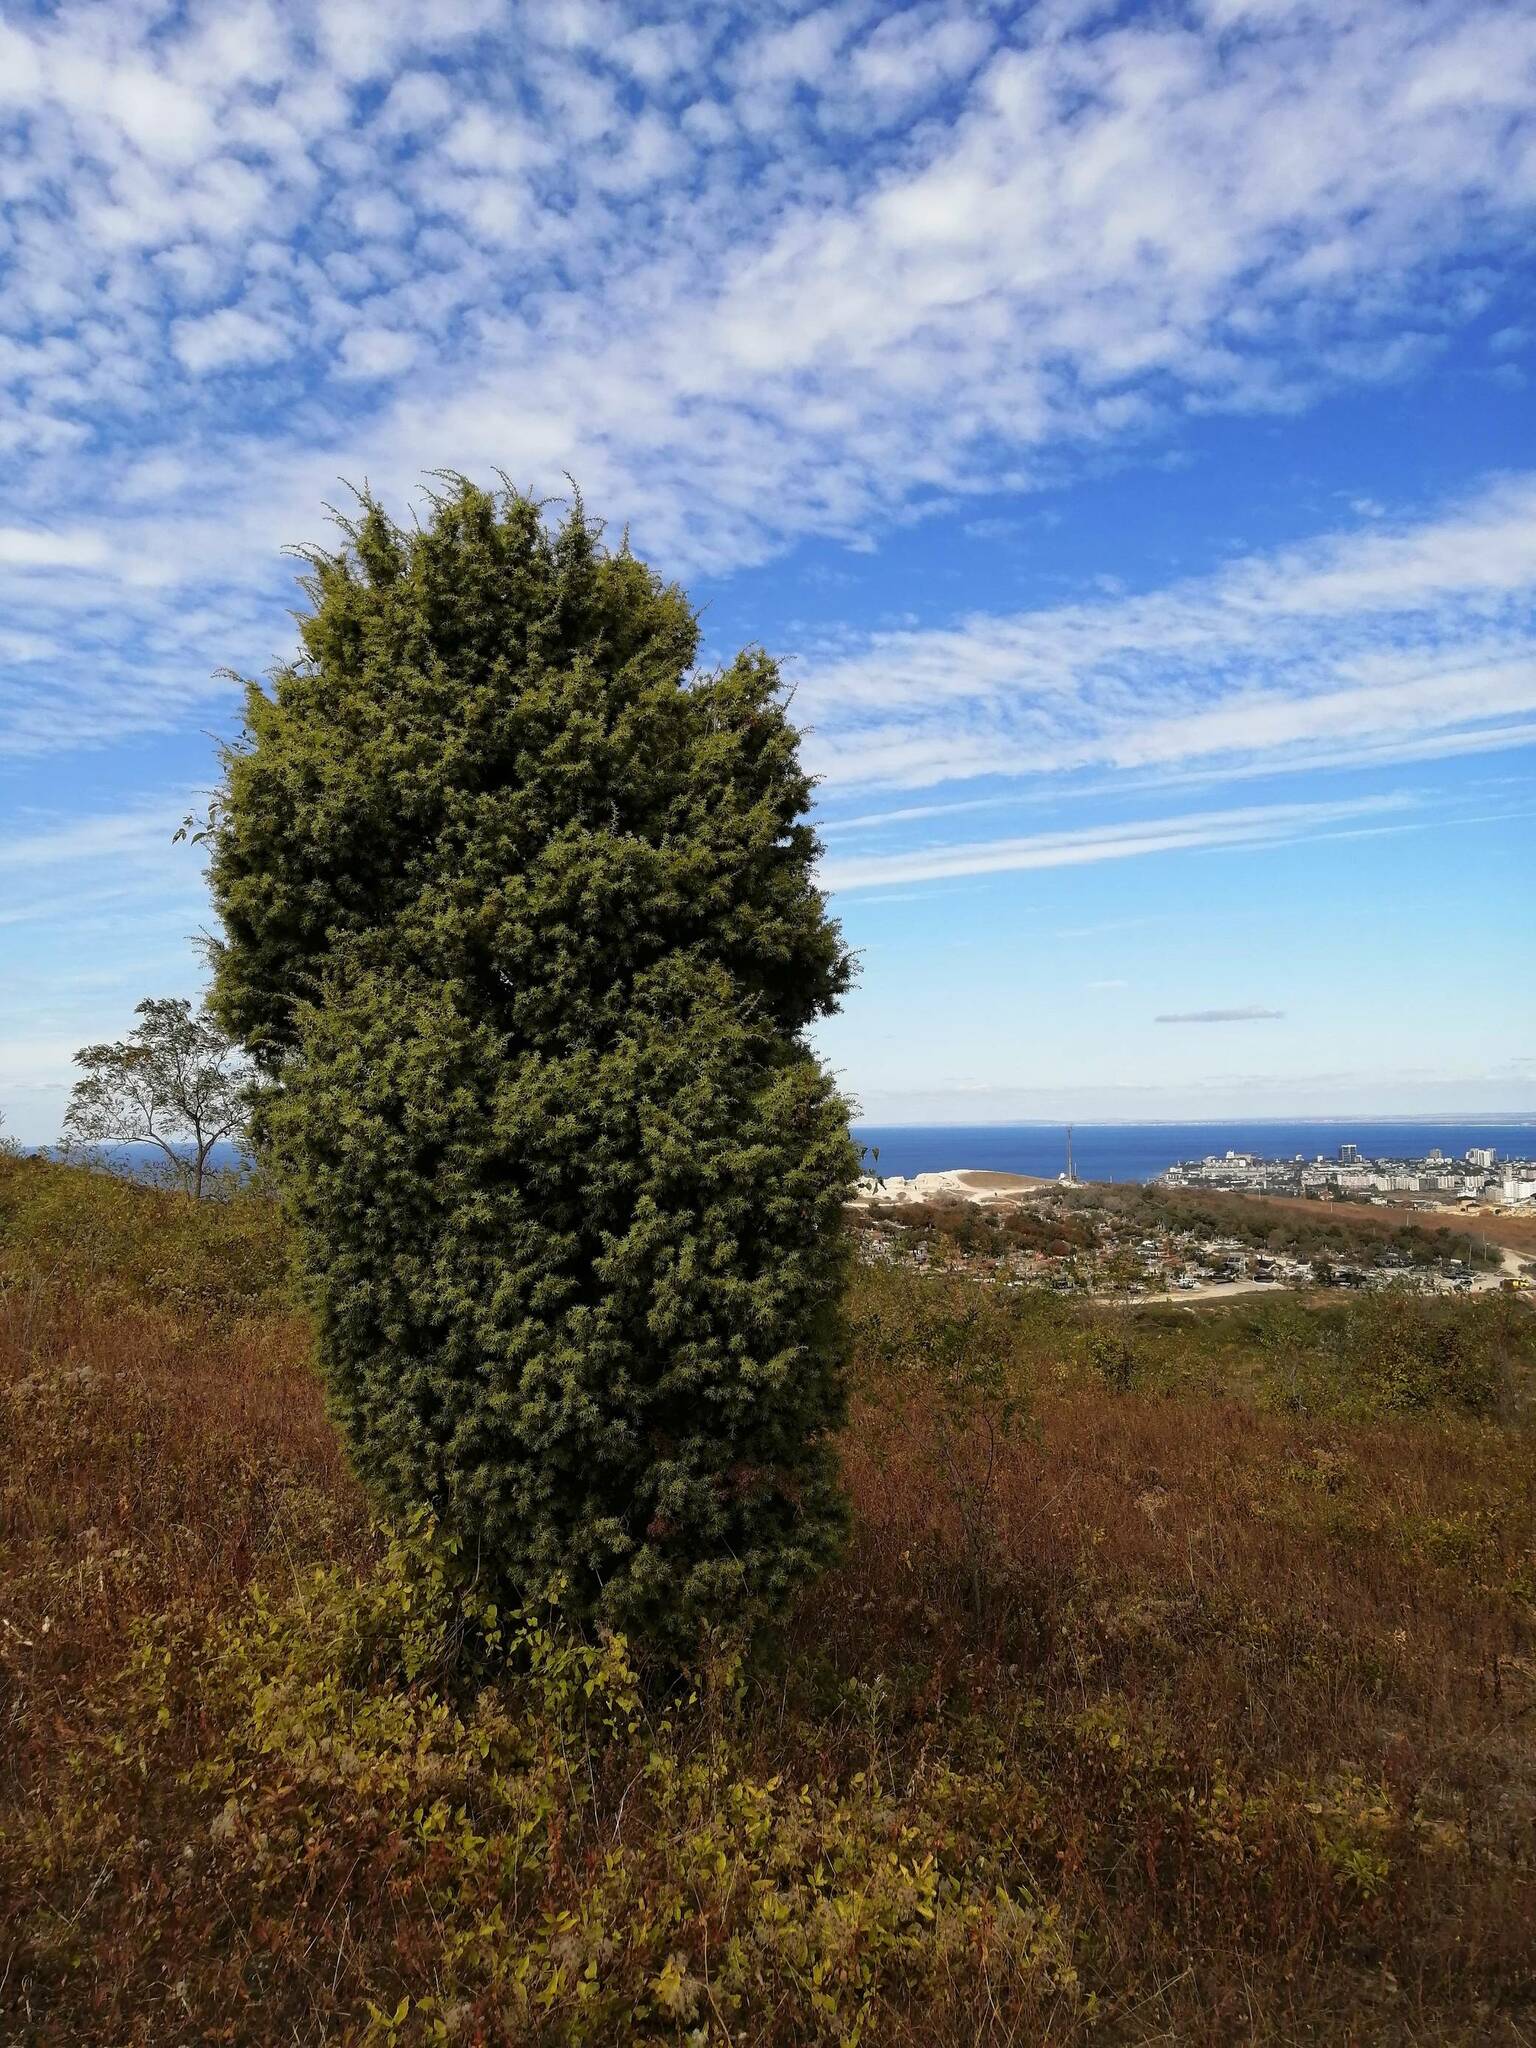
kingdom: Plantae
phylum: Tracheophyta
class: Pinopsida
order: Pinales
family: Cupressaceae
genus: Juniperus
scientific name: Juniperus oxycedrus
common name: Prickly juniper
